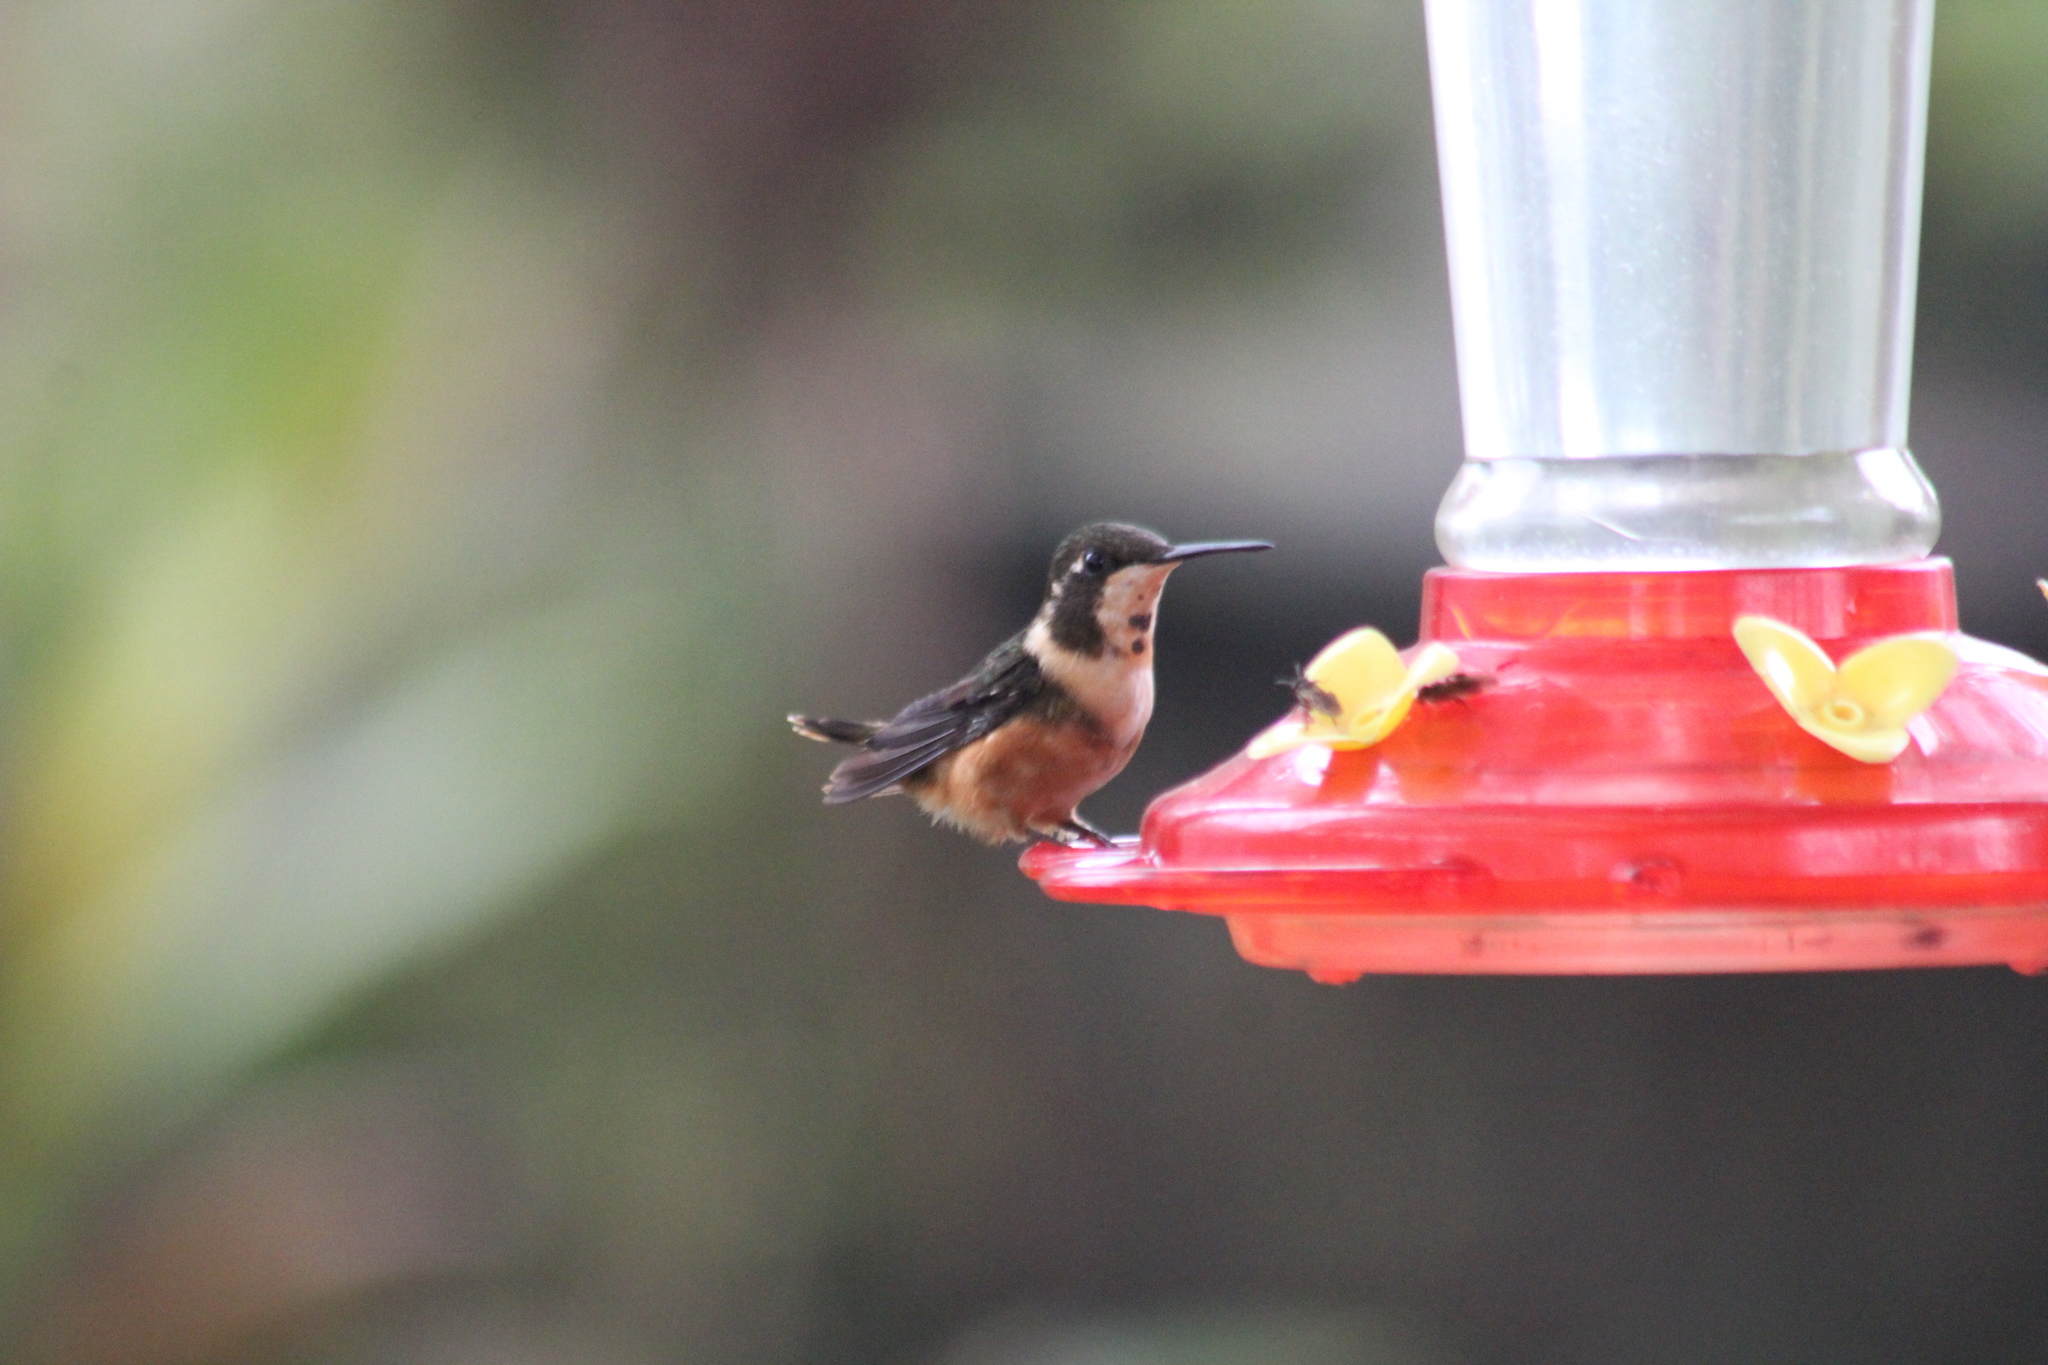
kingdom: Animalia
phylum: Chordata
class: Aves
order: Apodiformes
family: Trochilidae
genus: Calliphlox
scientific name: Calliphlox mitchellii
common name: Purple-throated woodstar
